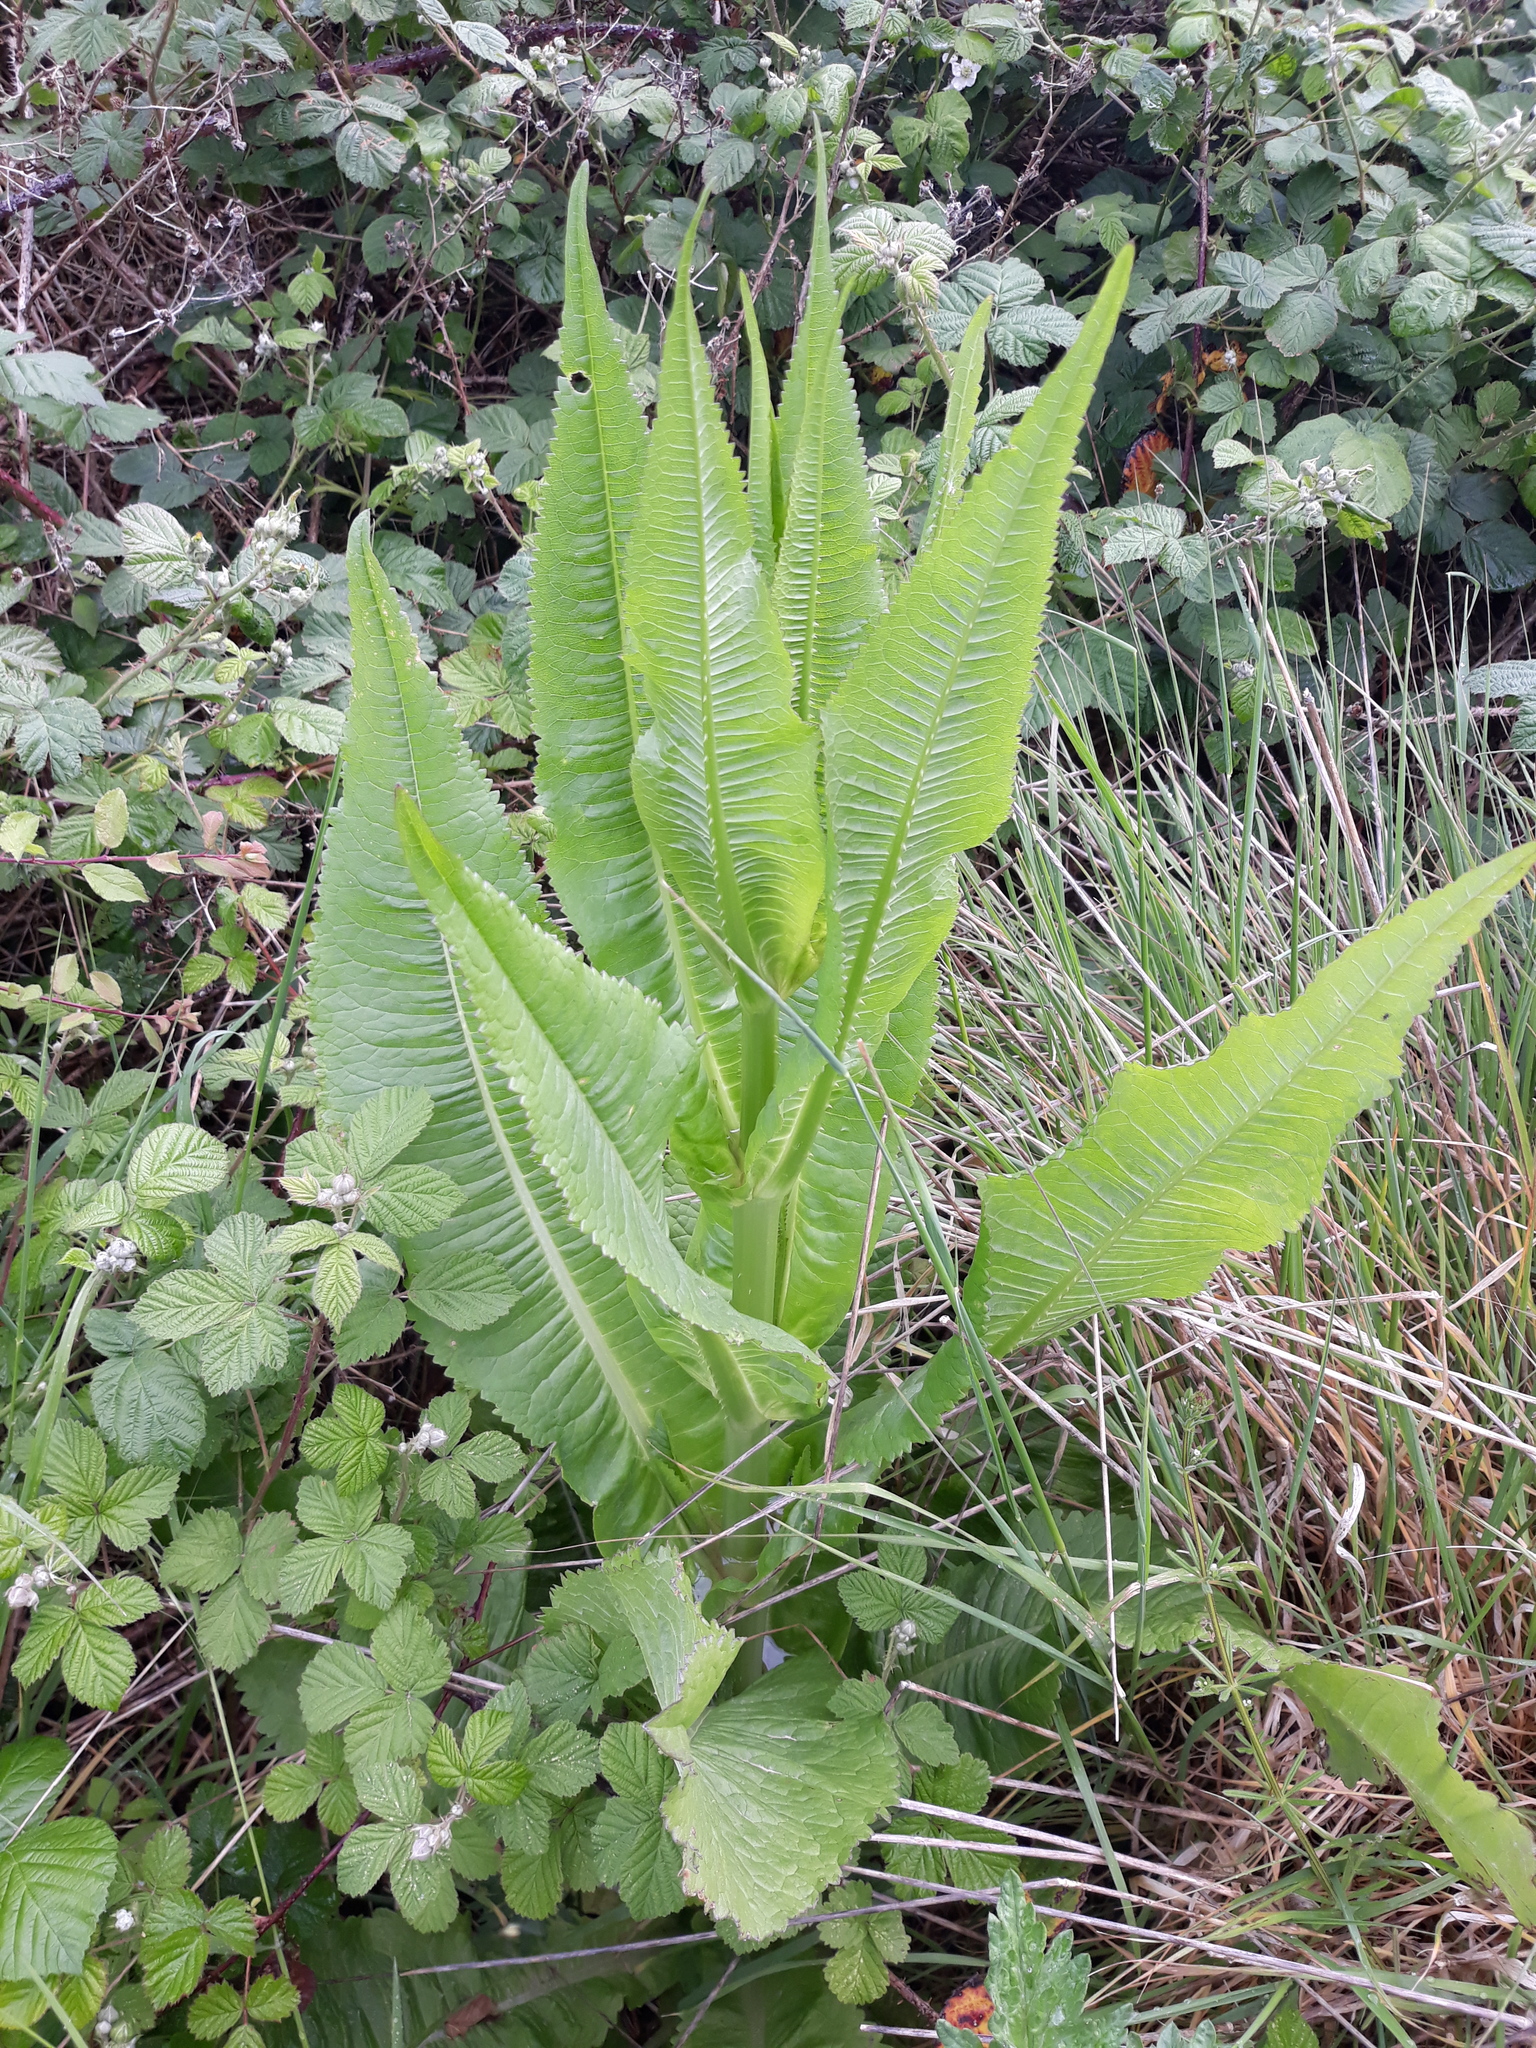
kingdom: Plantae
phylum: Tracheophyta
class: Magnoliopsida
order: Dipsacales
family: Caprifoliaceae
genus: Dipsacus
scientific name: Dipsacus fullonum
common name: Teasel
